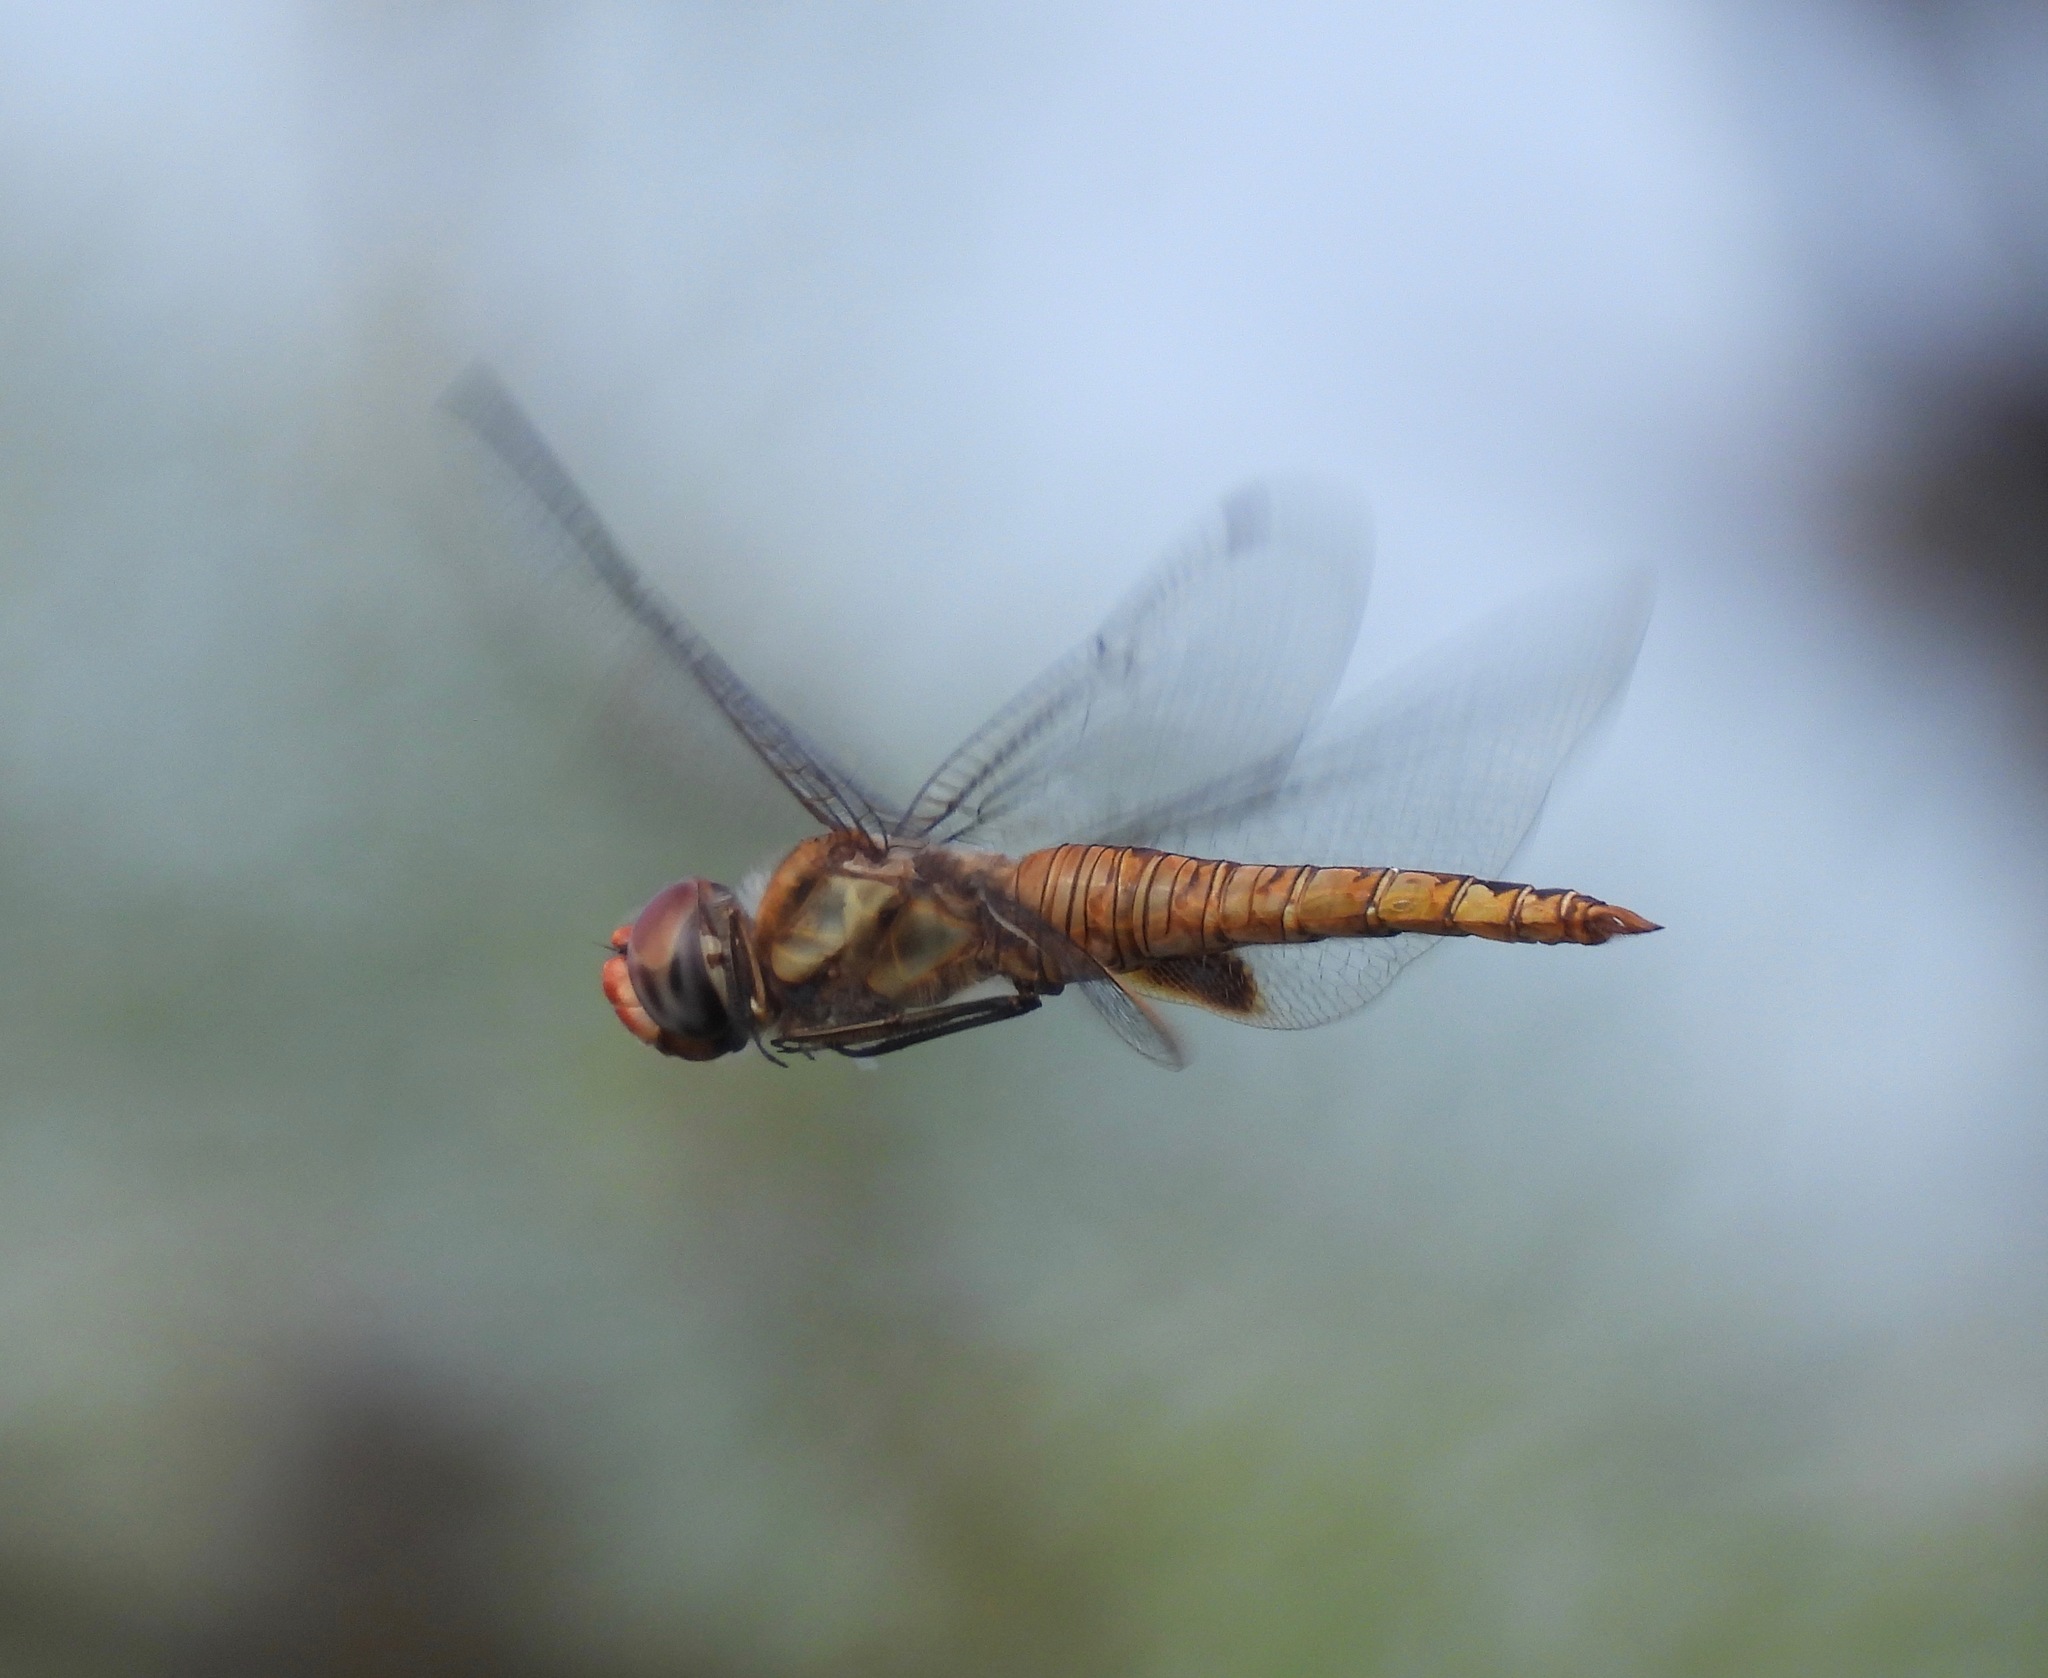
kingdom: Animalia
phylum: Arthropoda
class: Insecta
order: Odonata
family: Libellulidae
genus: Pantala
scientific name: Pantala hymenaea
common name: Spot-winged glider
